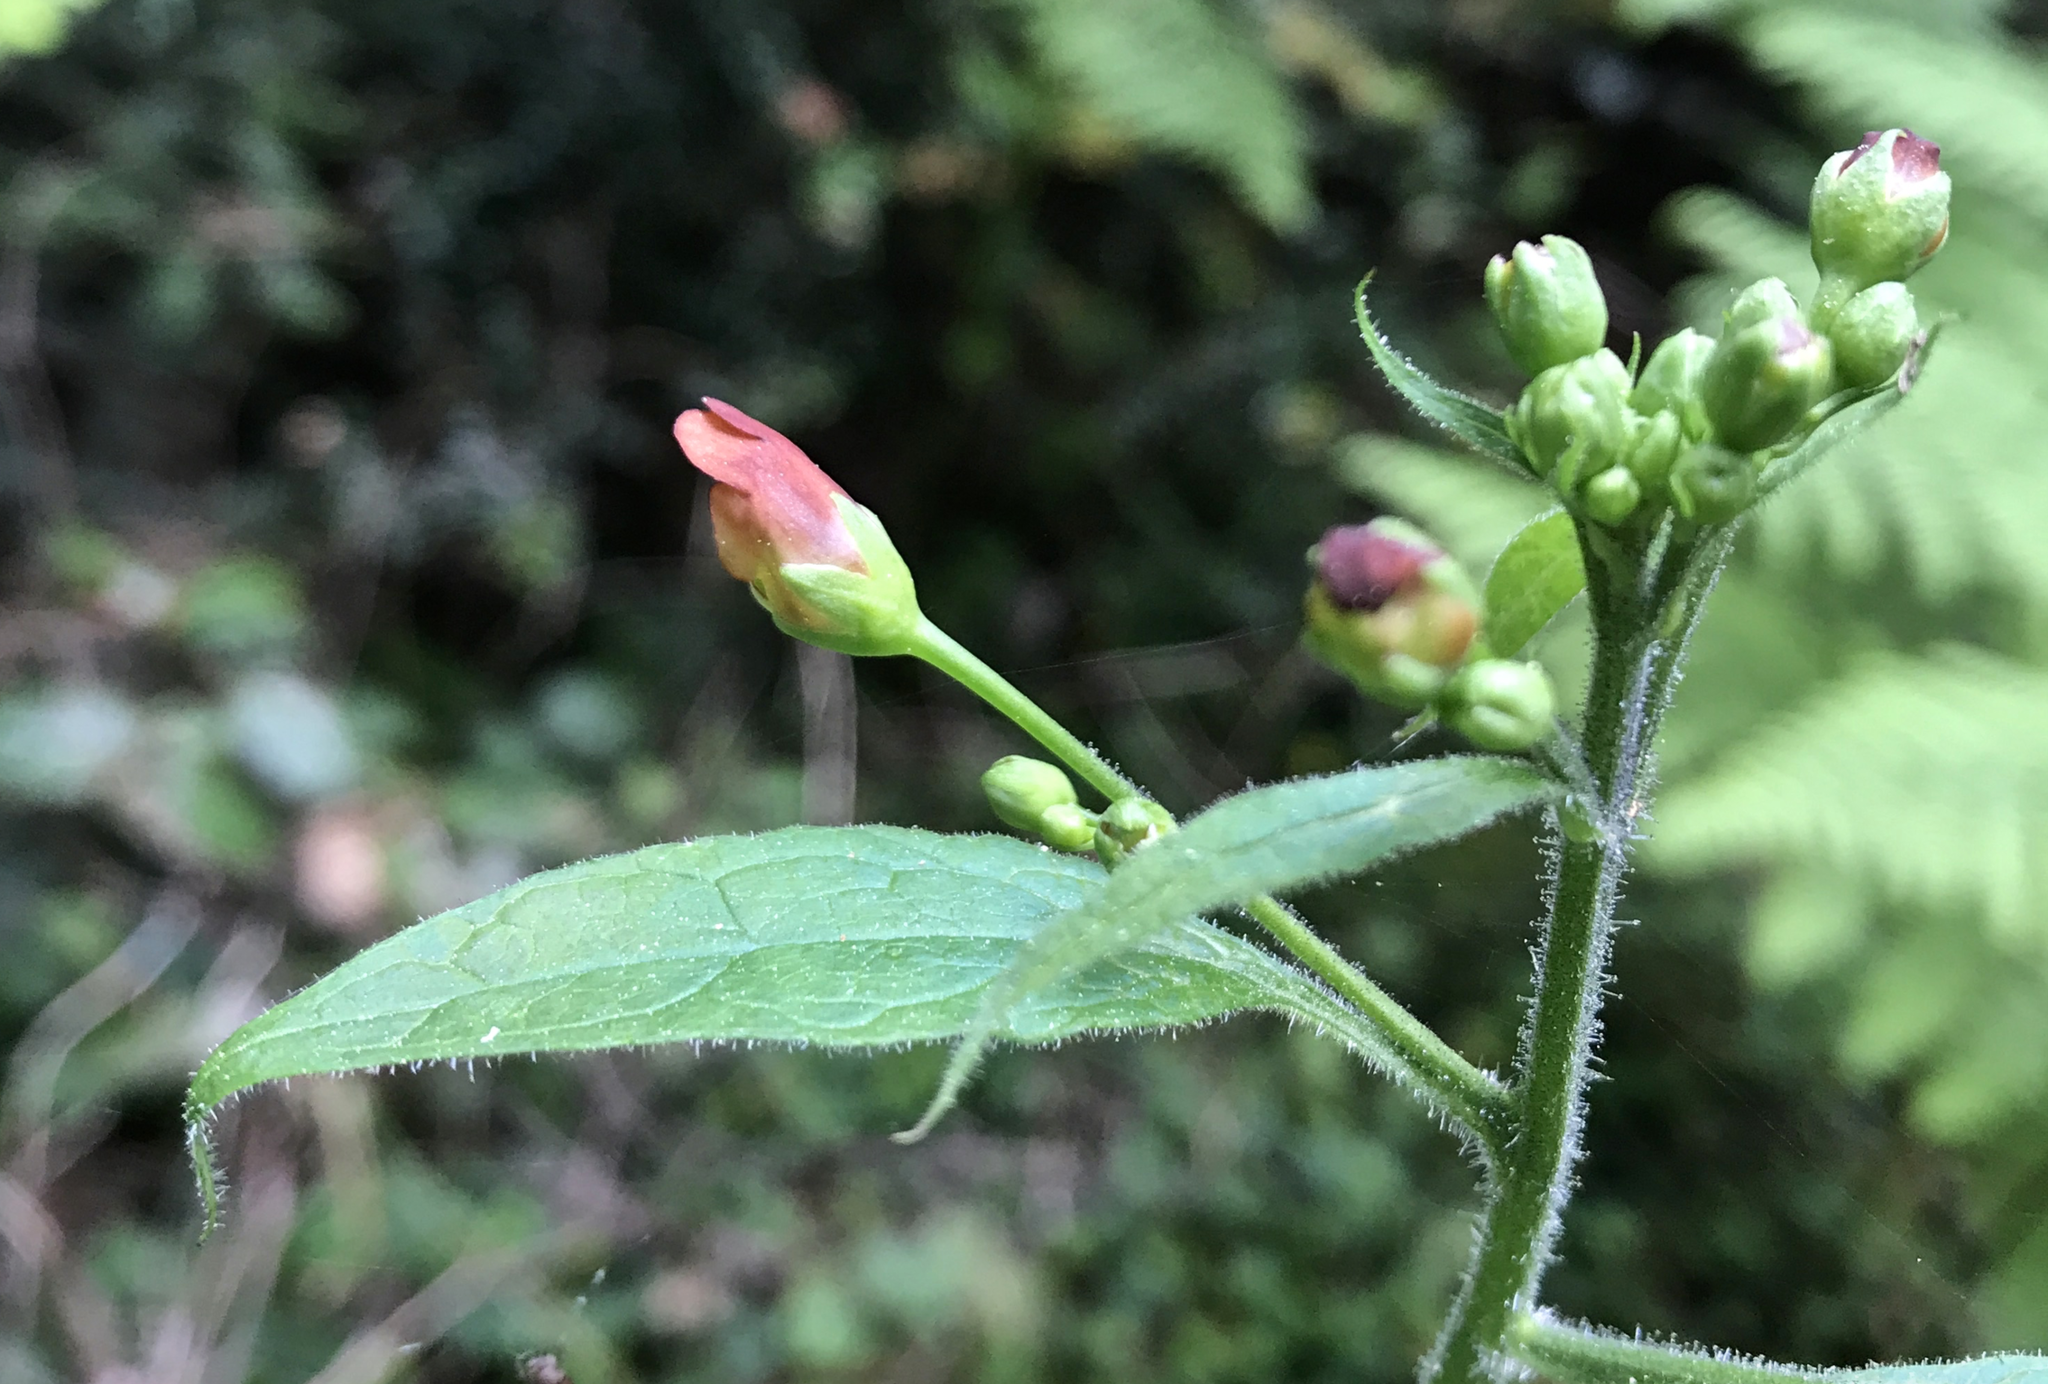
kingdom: Plantae
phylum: Tracheophyta
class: Magnoliopsida
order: Lamiales
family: Scrophulariaceae
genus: Scrophularia
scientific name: Scrophularia californica
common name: California figwort
